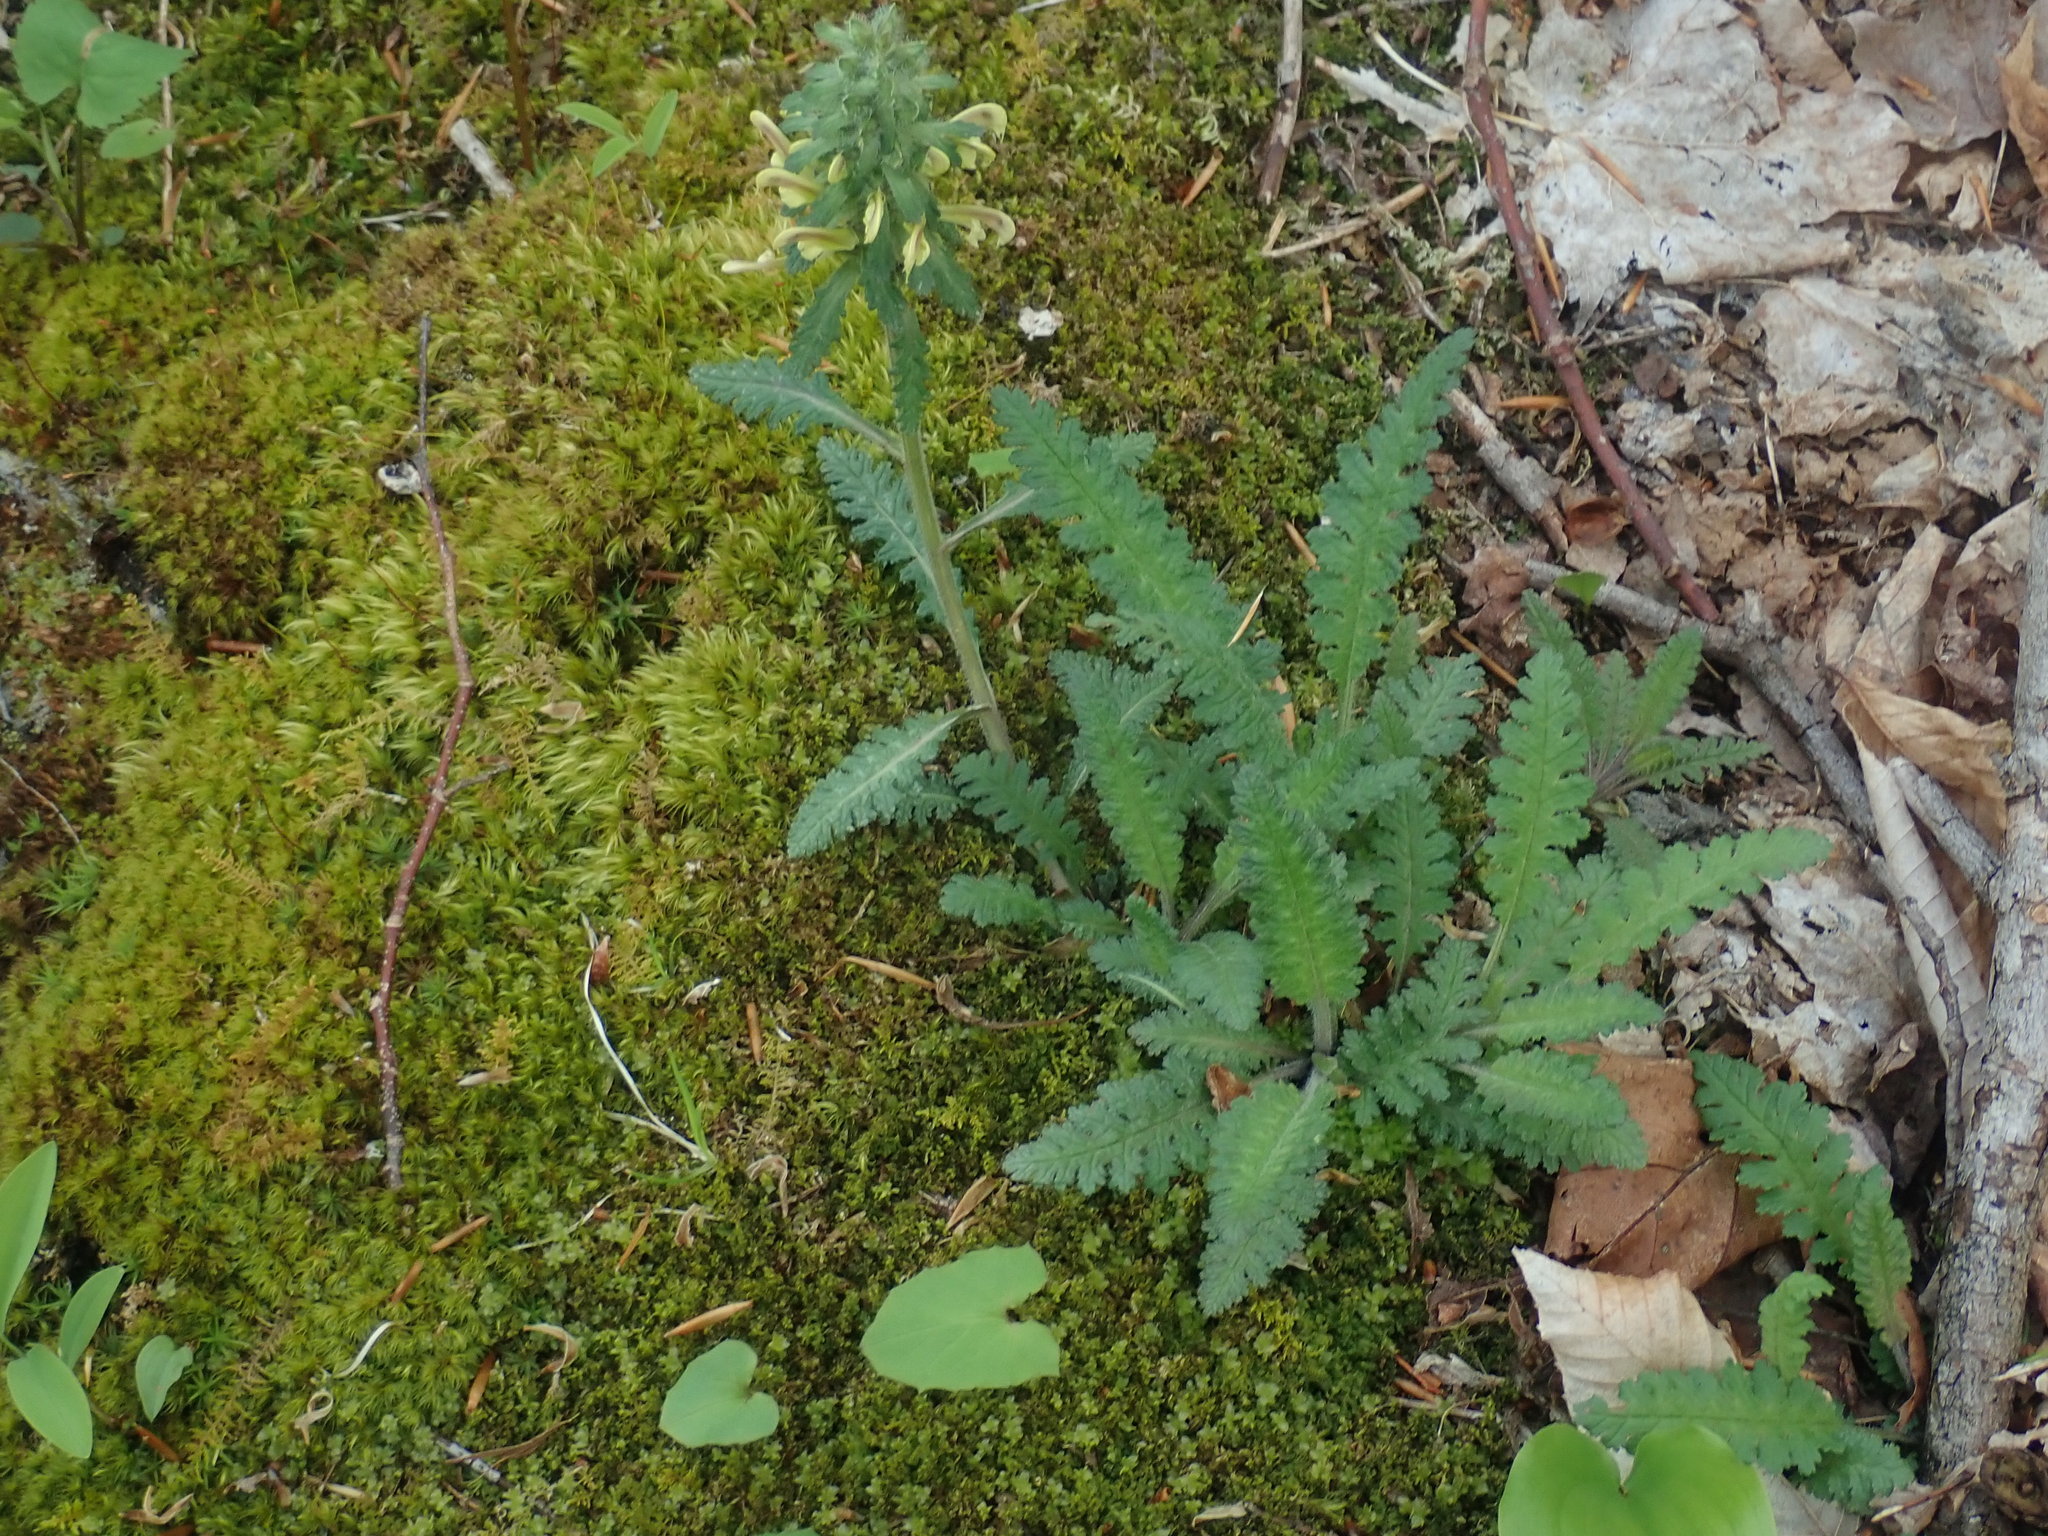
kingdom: Plantae
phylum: Tracheophyta
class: Magnoliopsida
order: Lamiales
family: Orobanchaceae
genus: Pedicularis
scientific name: Pedicularis canadensis
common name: Early lousewort
